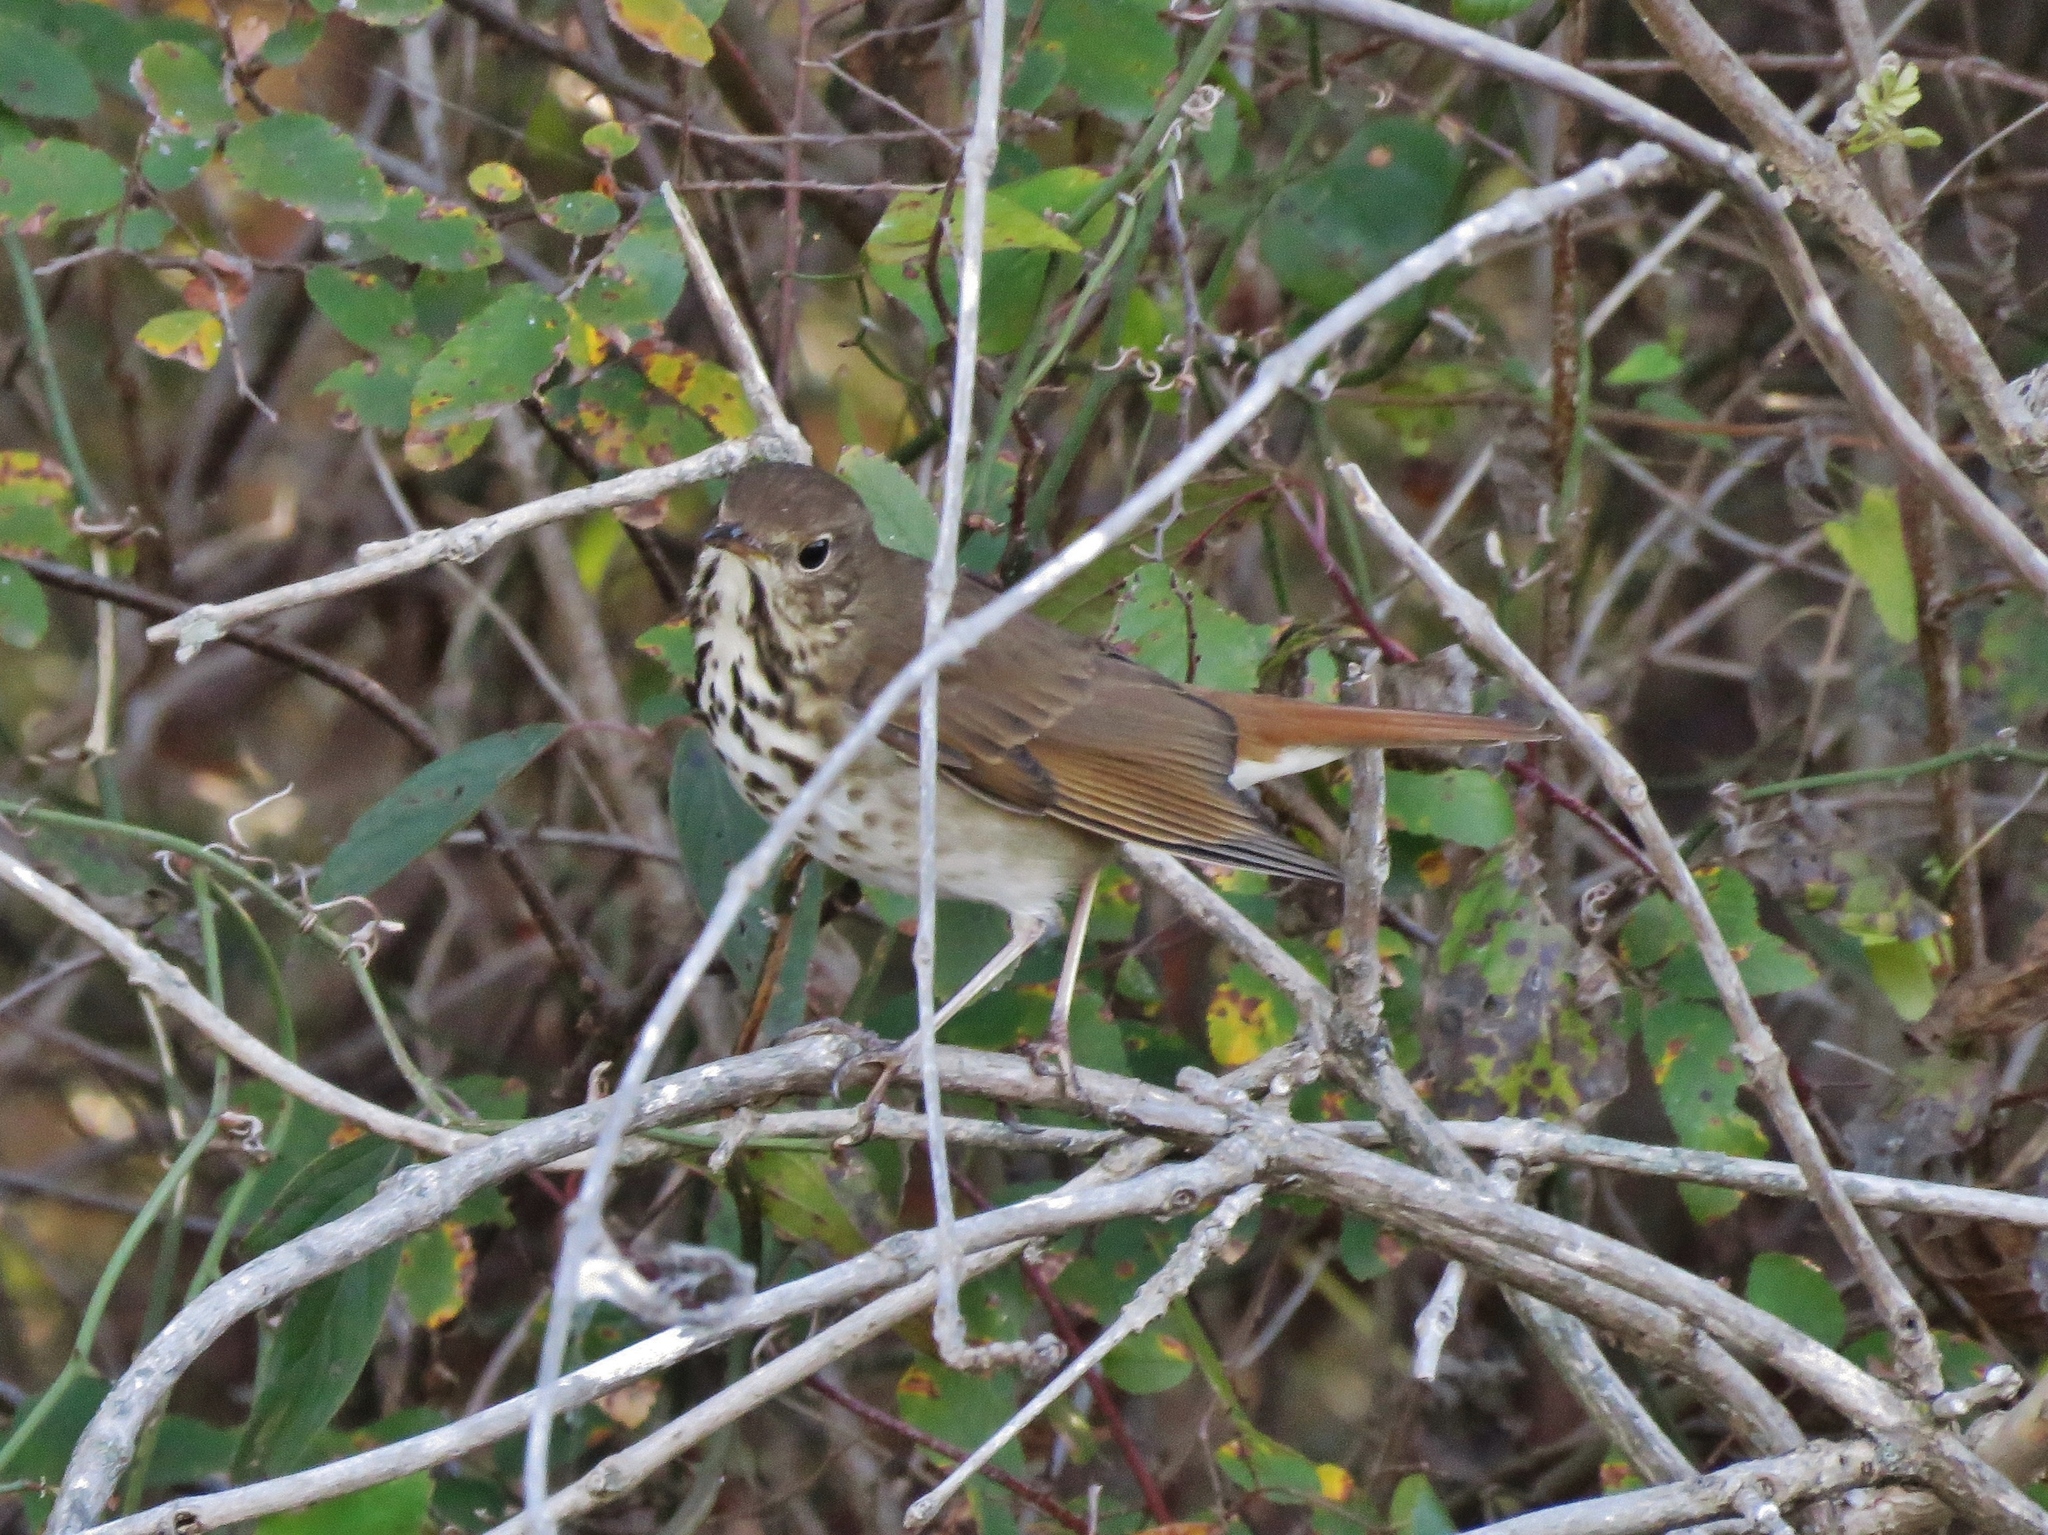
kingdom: Animalia
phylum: Chordata
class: Aves
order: Passeriformes
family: Turdidae
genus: Catharus
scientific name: Catharus guttatus
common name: Hermit thrush
